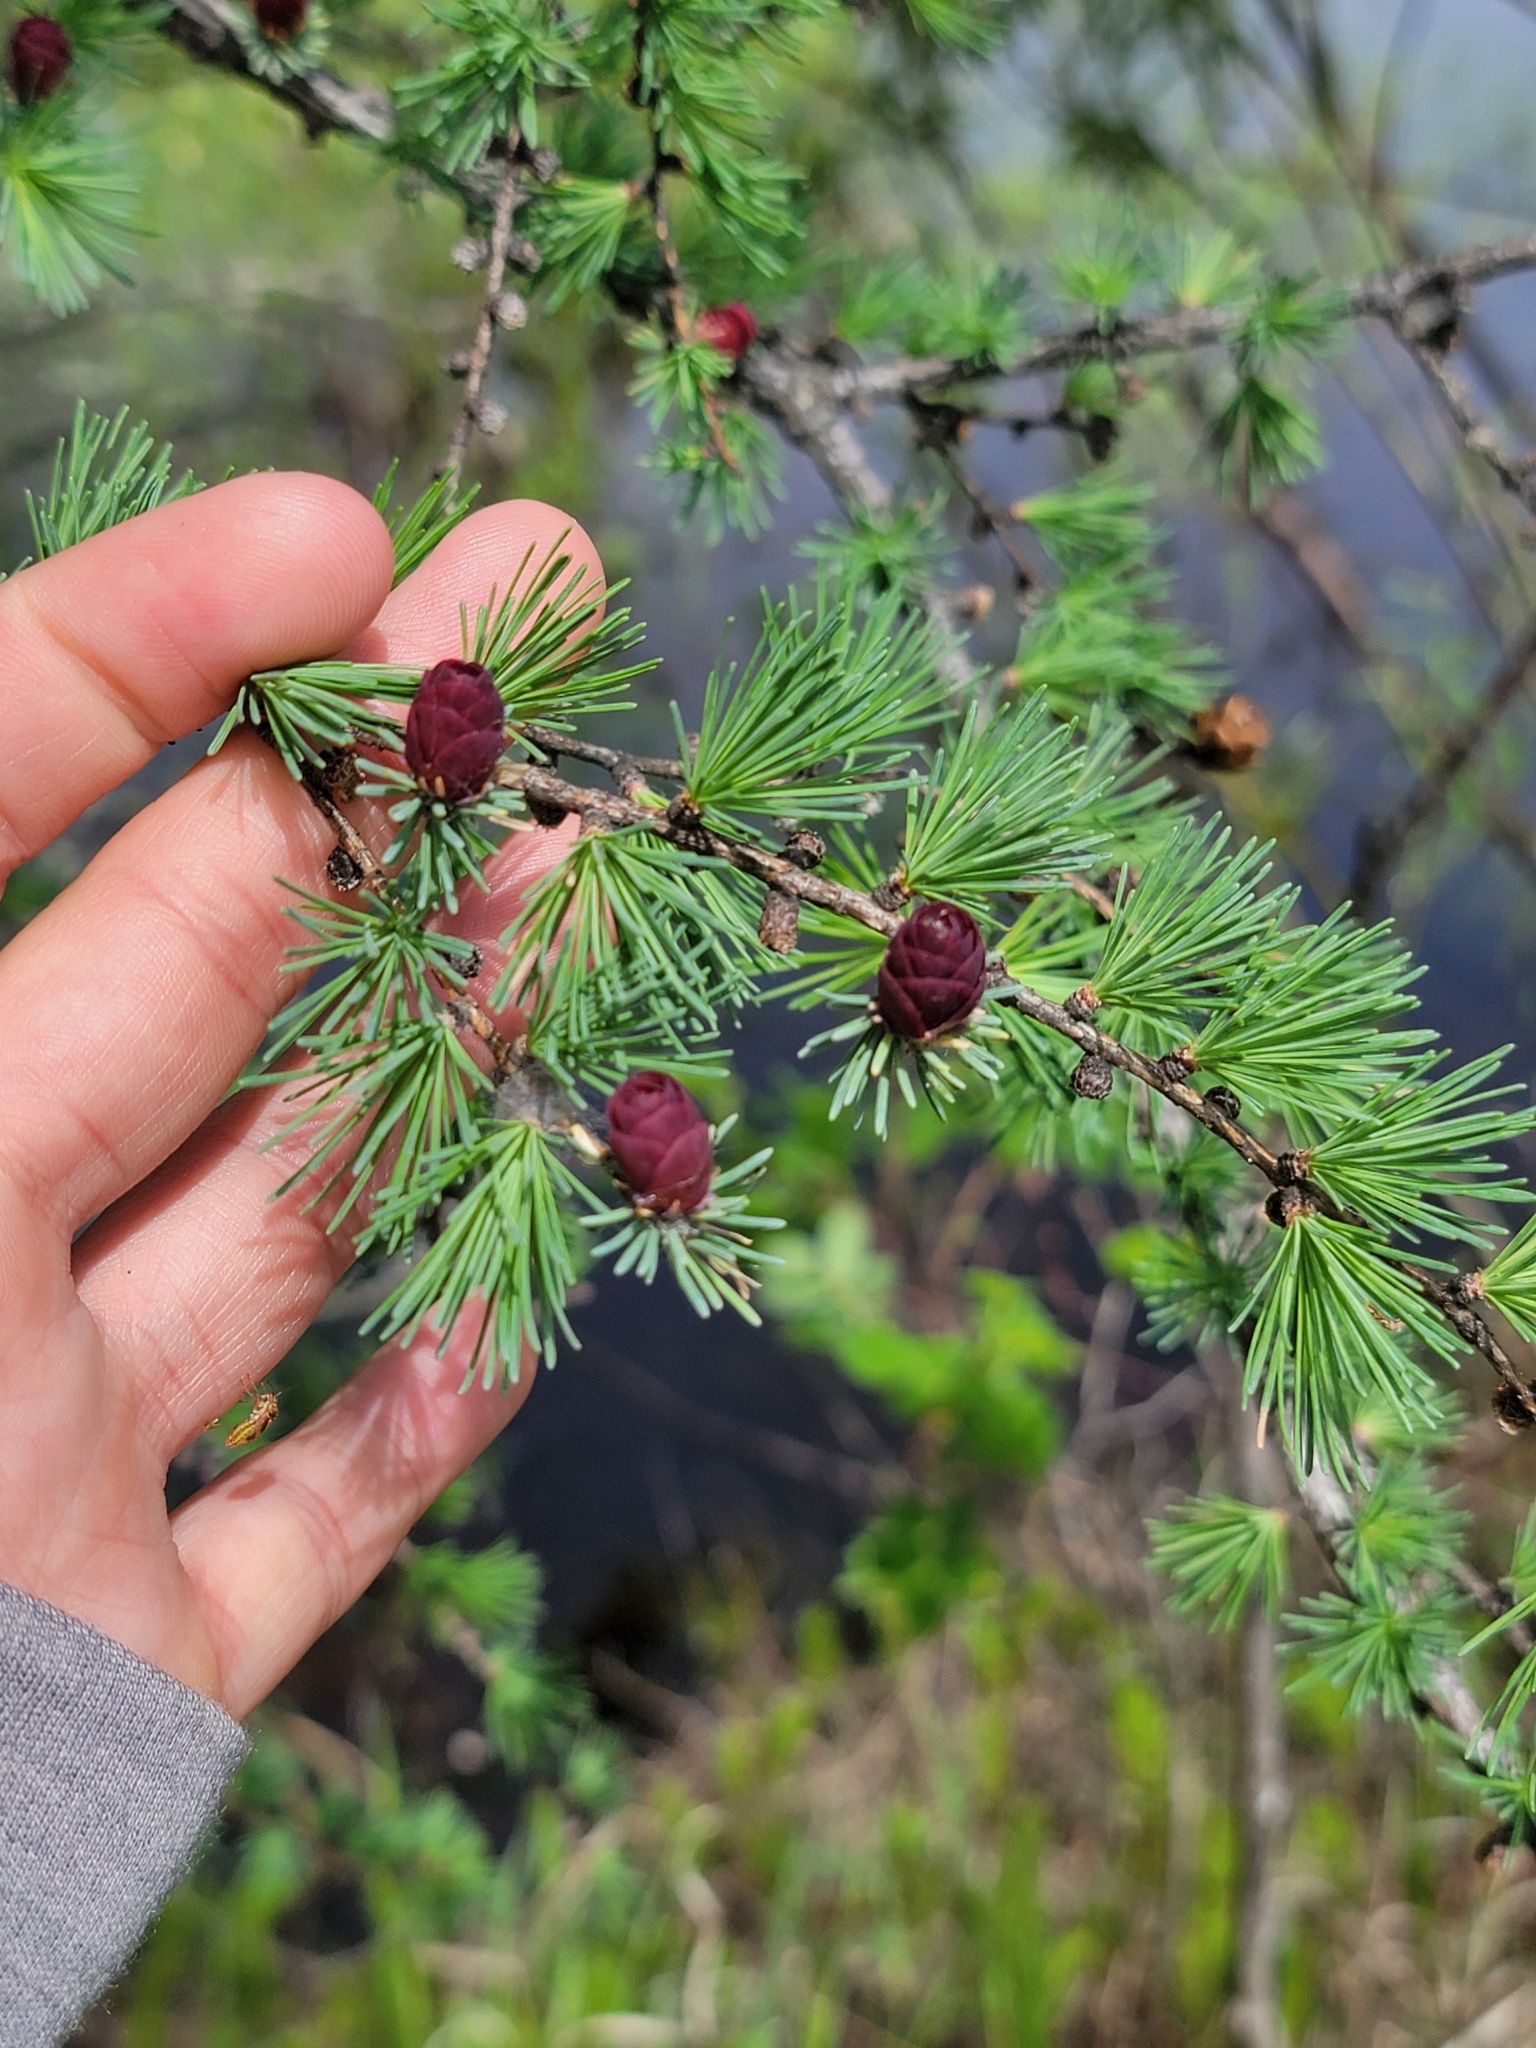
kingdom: Plantae
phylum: Tracheophyta
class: Pinopsida
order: Pinales
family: Pinaceae
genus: Larix
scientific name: Larix laricina
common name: American larch
